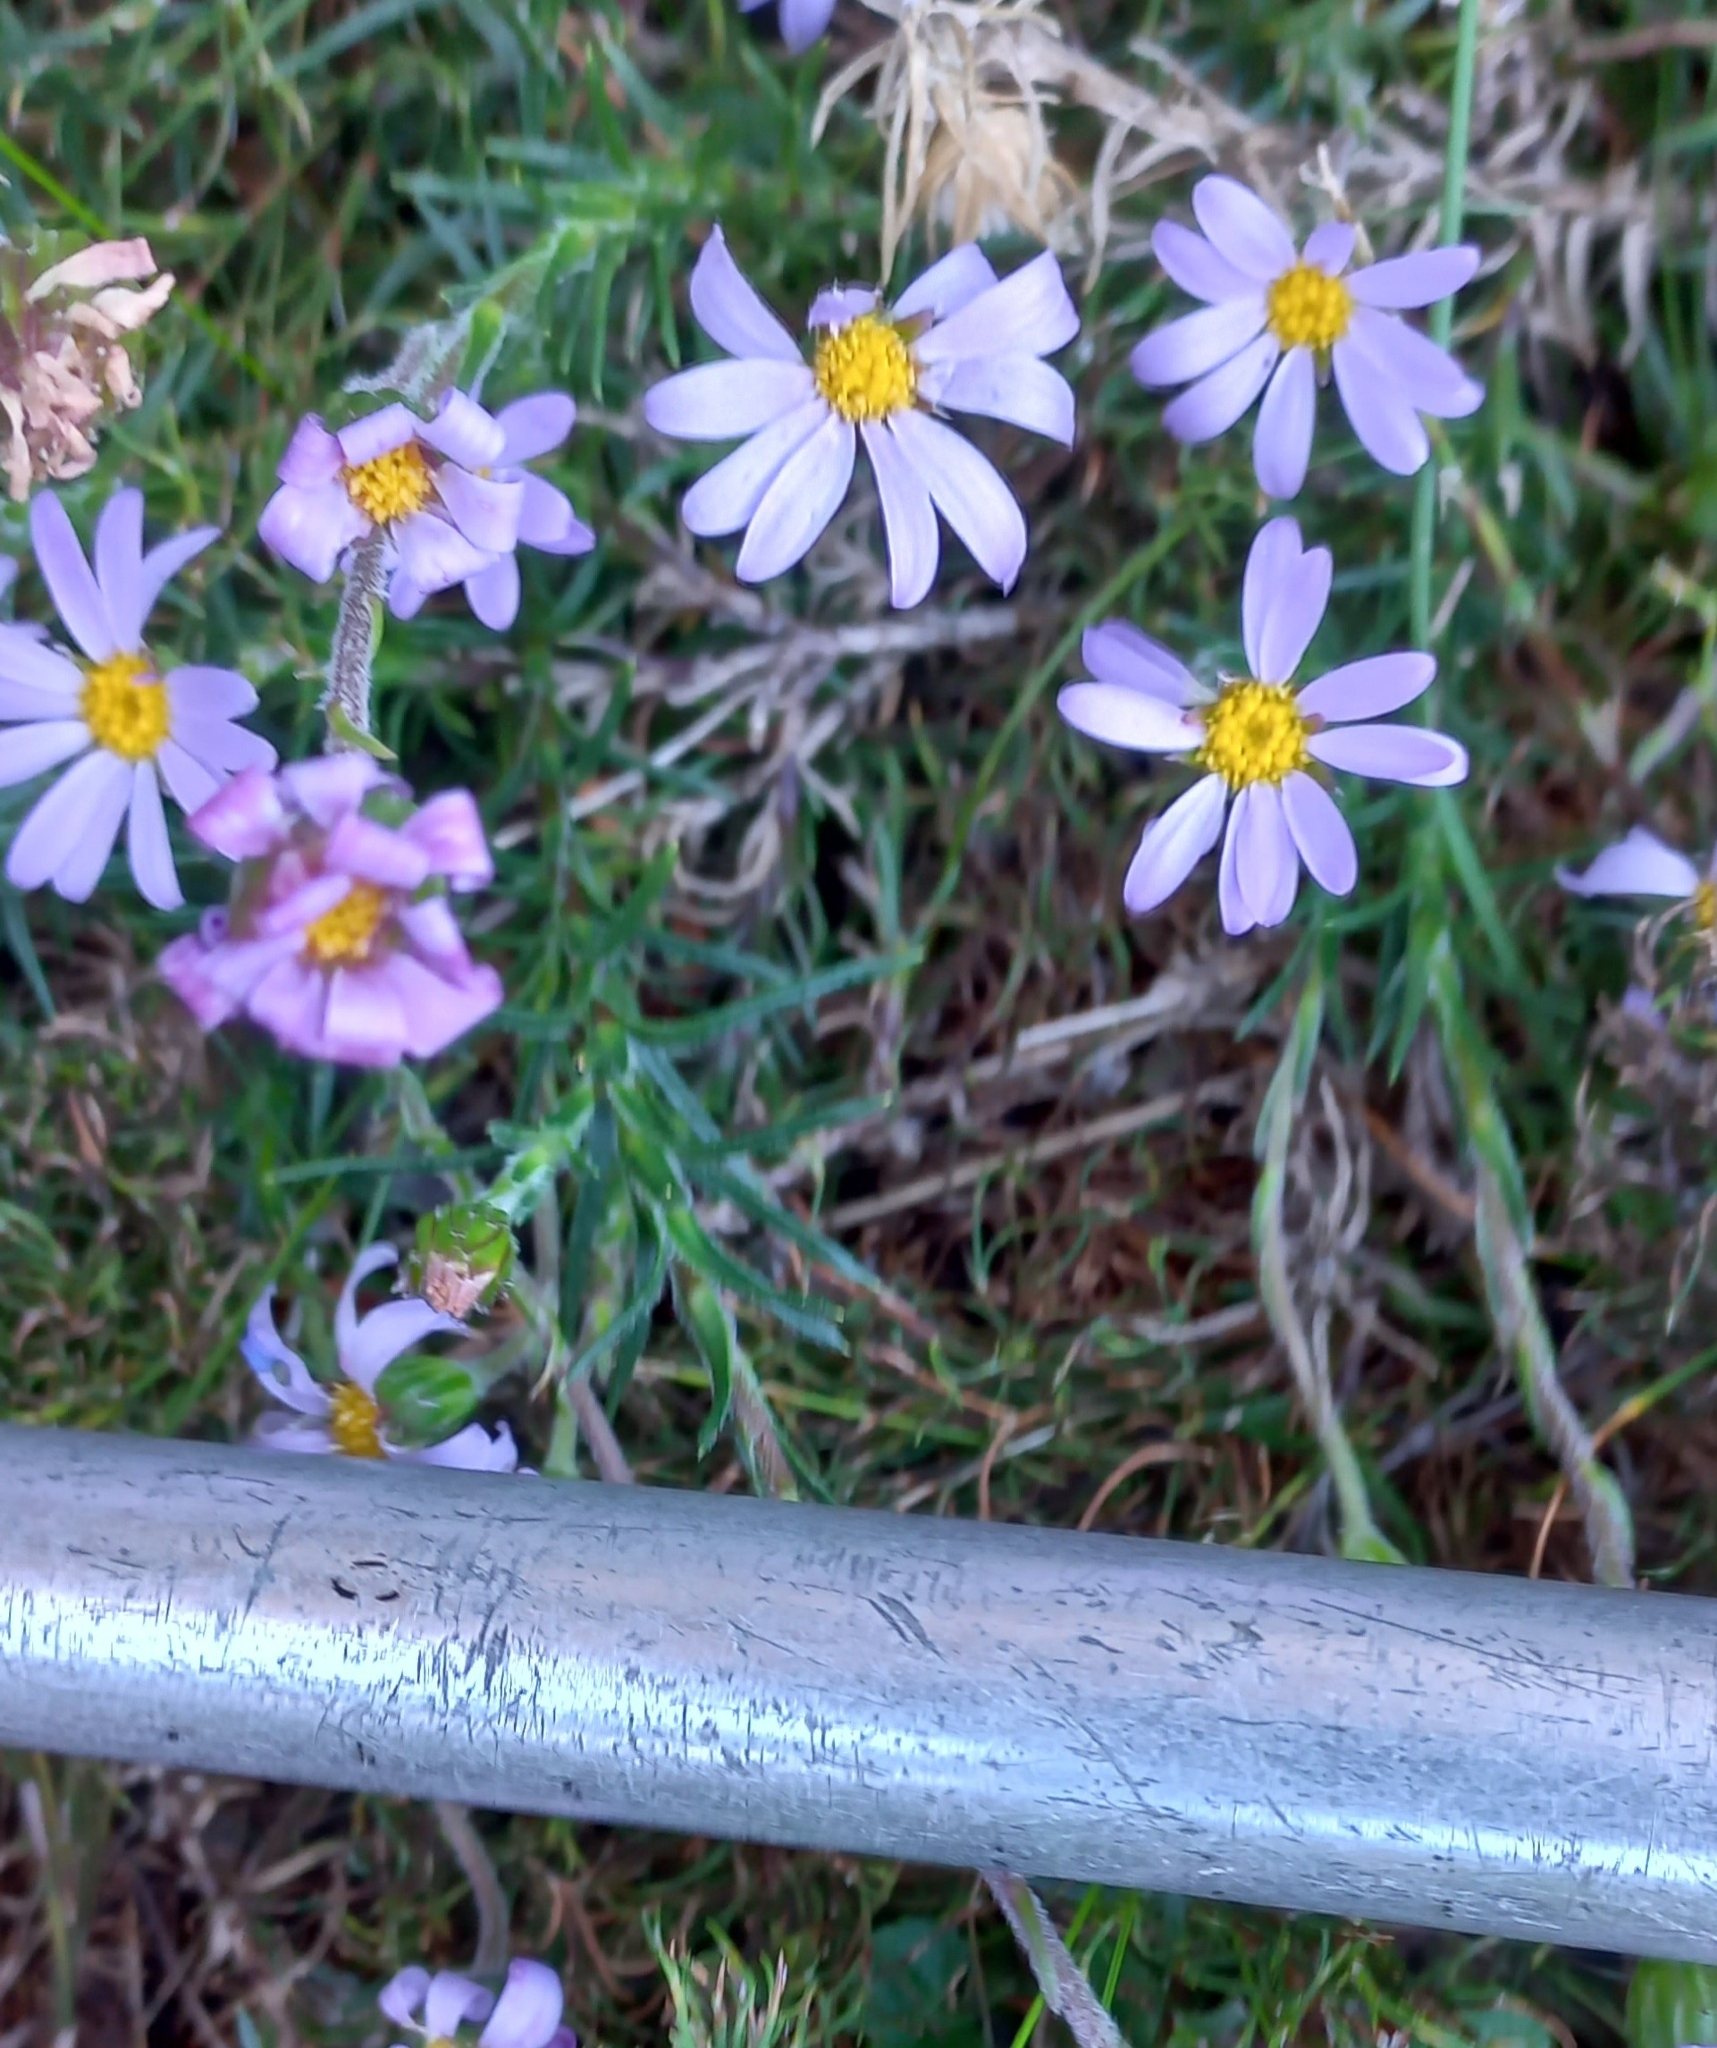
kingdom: Plantae
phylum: Tracheophyta
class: Magnoliopsida
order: Asterales
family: Asteraceae
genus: Zyrphelis
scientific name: Zyrphelis taxifolia
